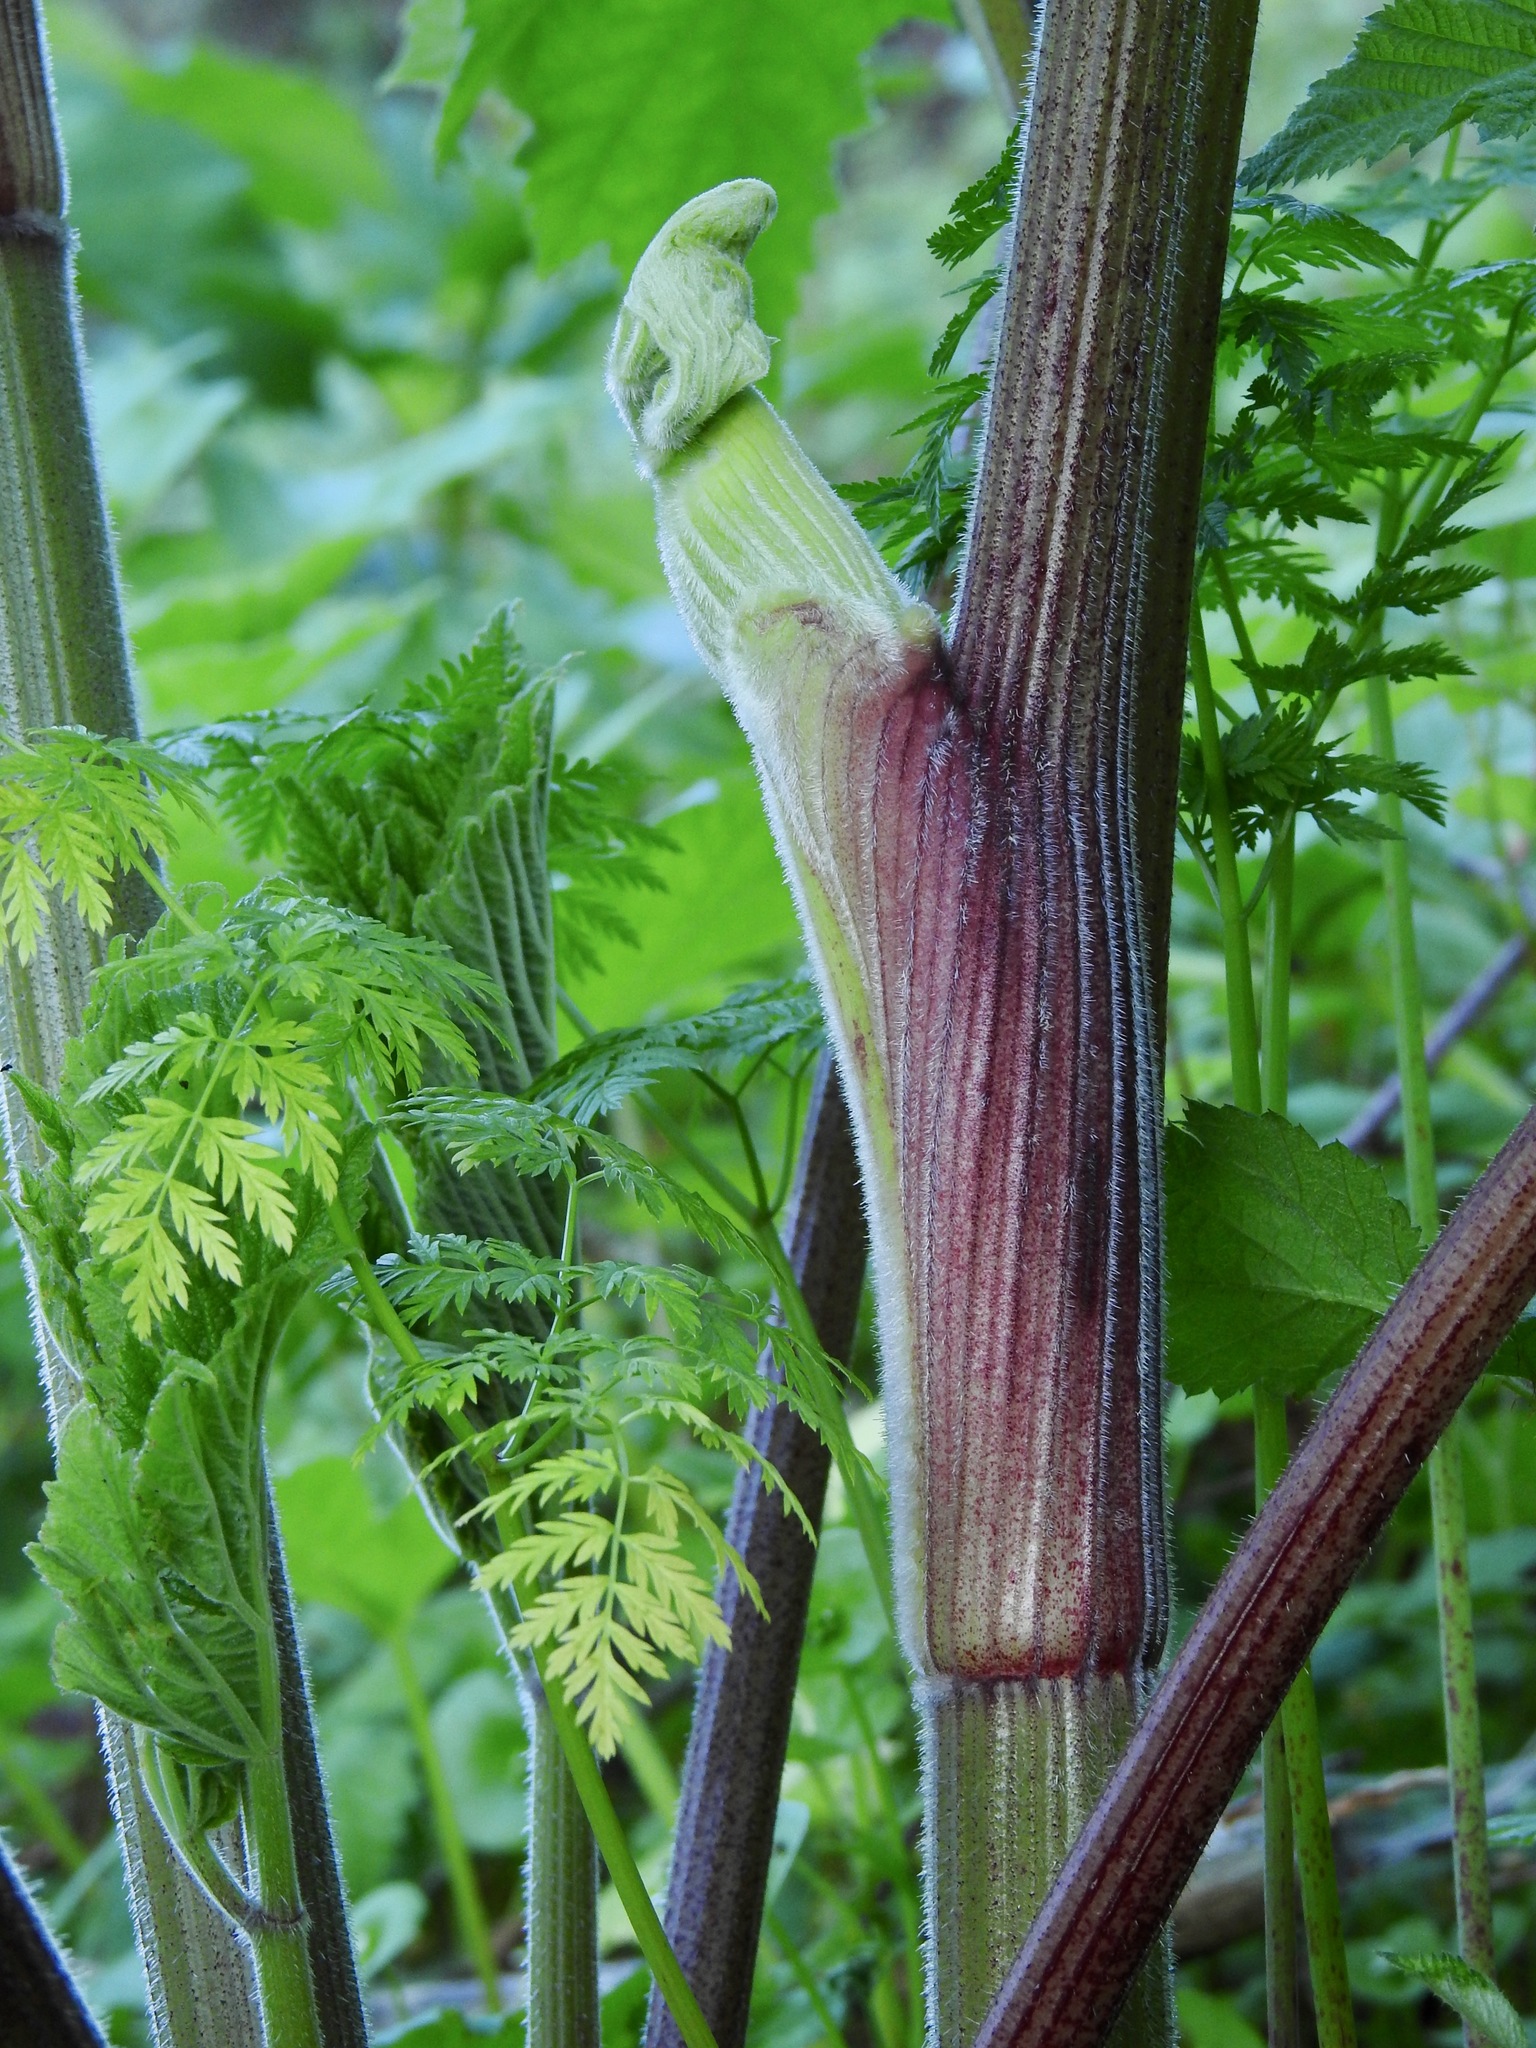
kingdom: Plantae
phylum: Tracheophyta
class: Magnoliopsida
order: Apiales
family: Apiaceae
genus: Conium
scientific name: Conium maculatum
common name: Hemlock
